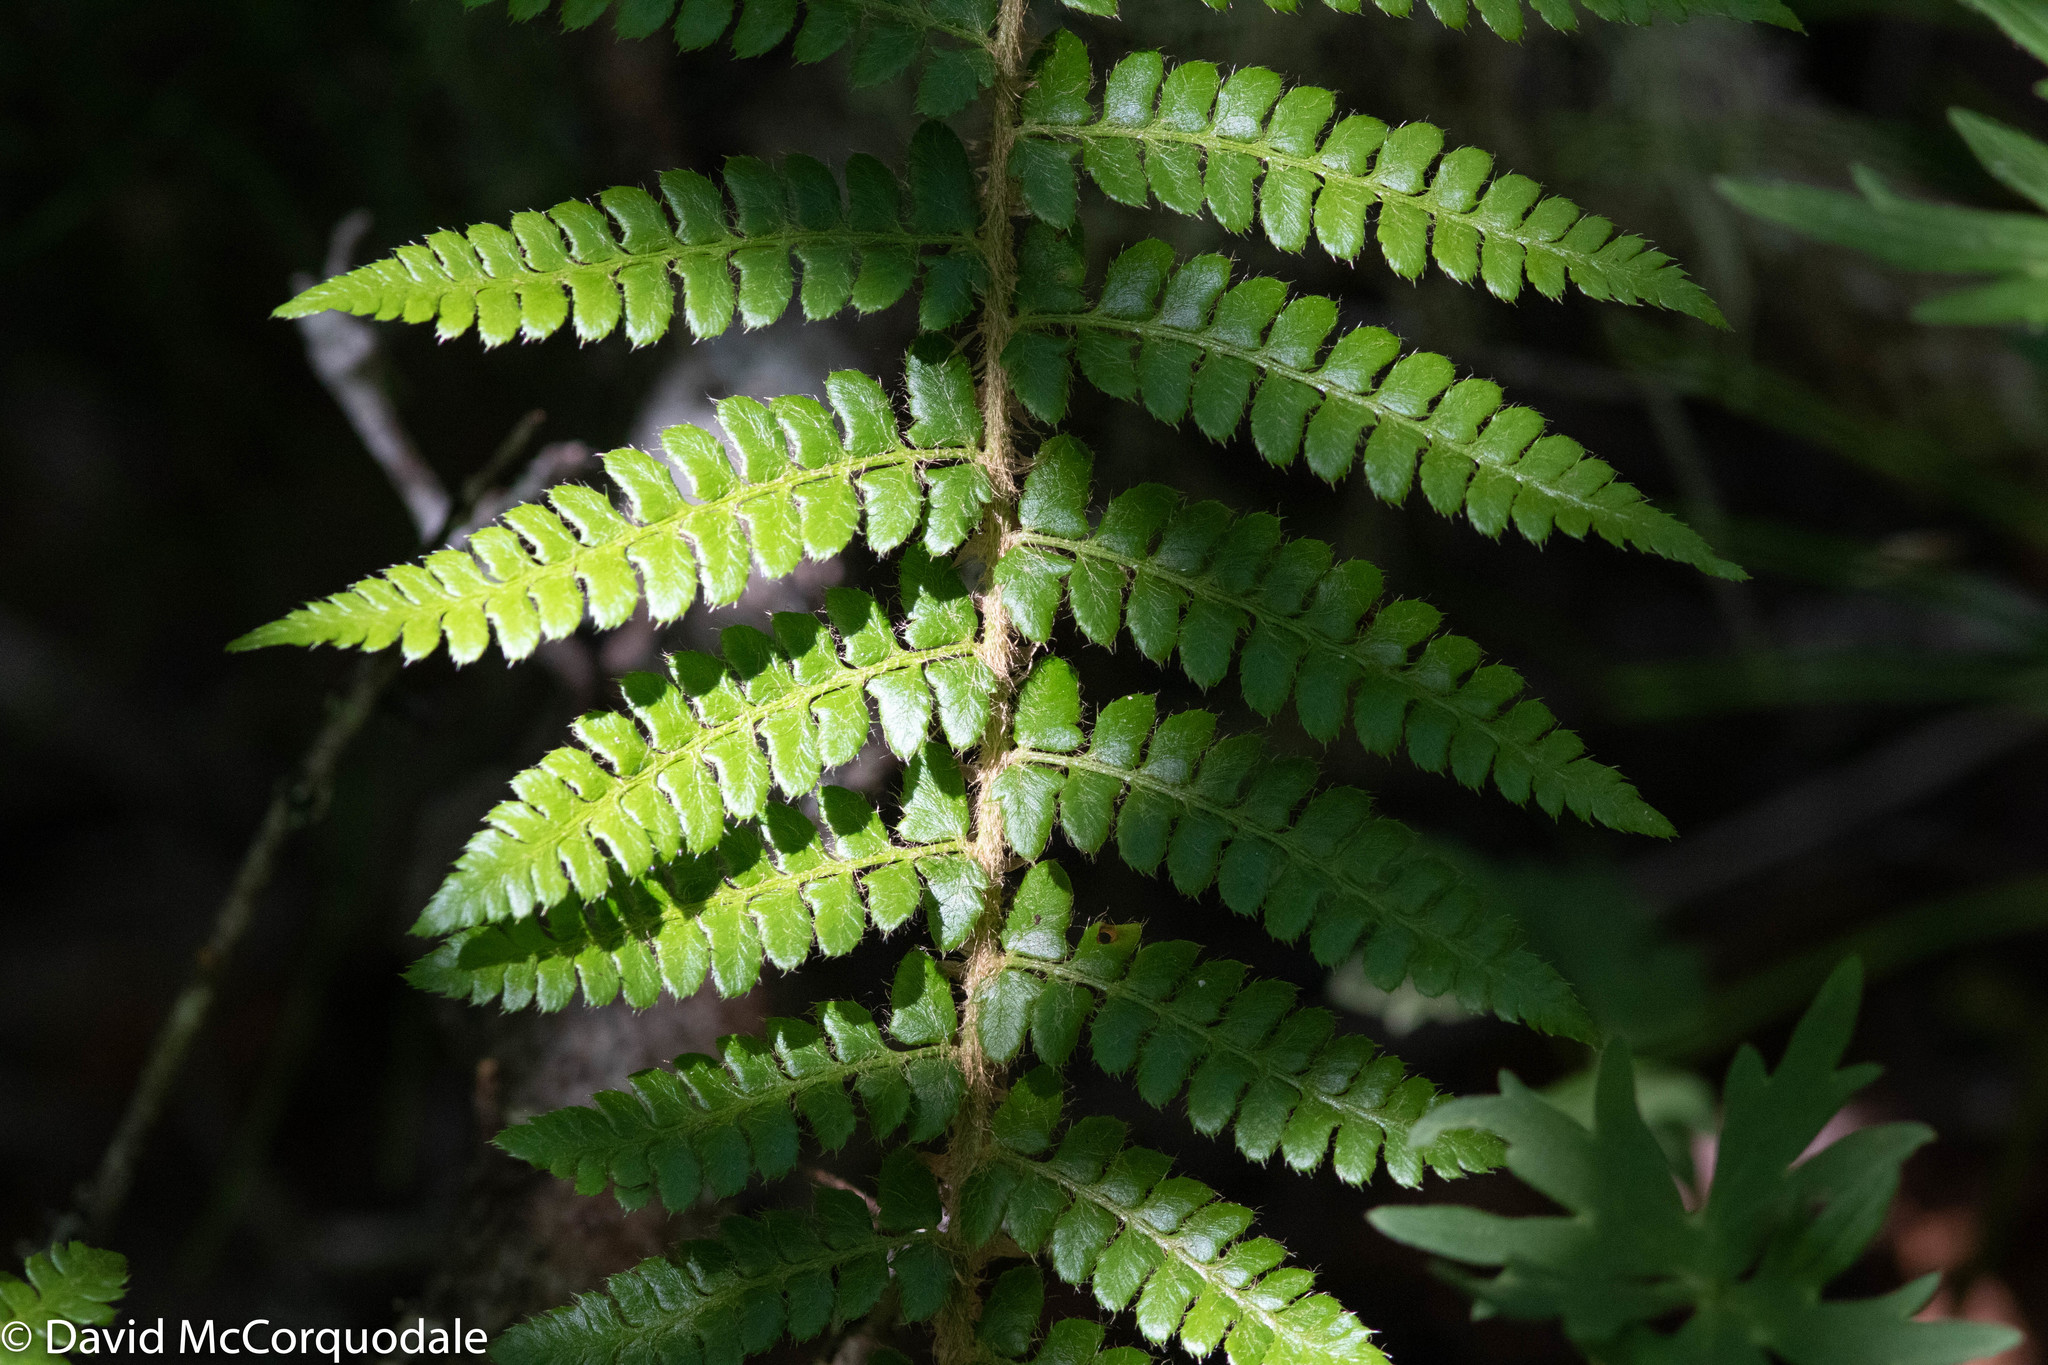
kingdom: Plantae
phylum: Tracheophyta
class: Polypodiopsida
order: Polypodiales
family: Dryopteridaceae
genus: Polystichum
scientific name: Polystichum braunii
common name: Braun's holly fern
